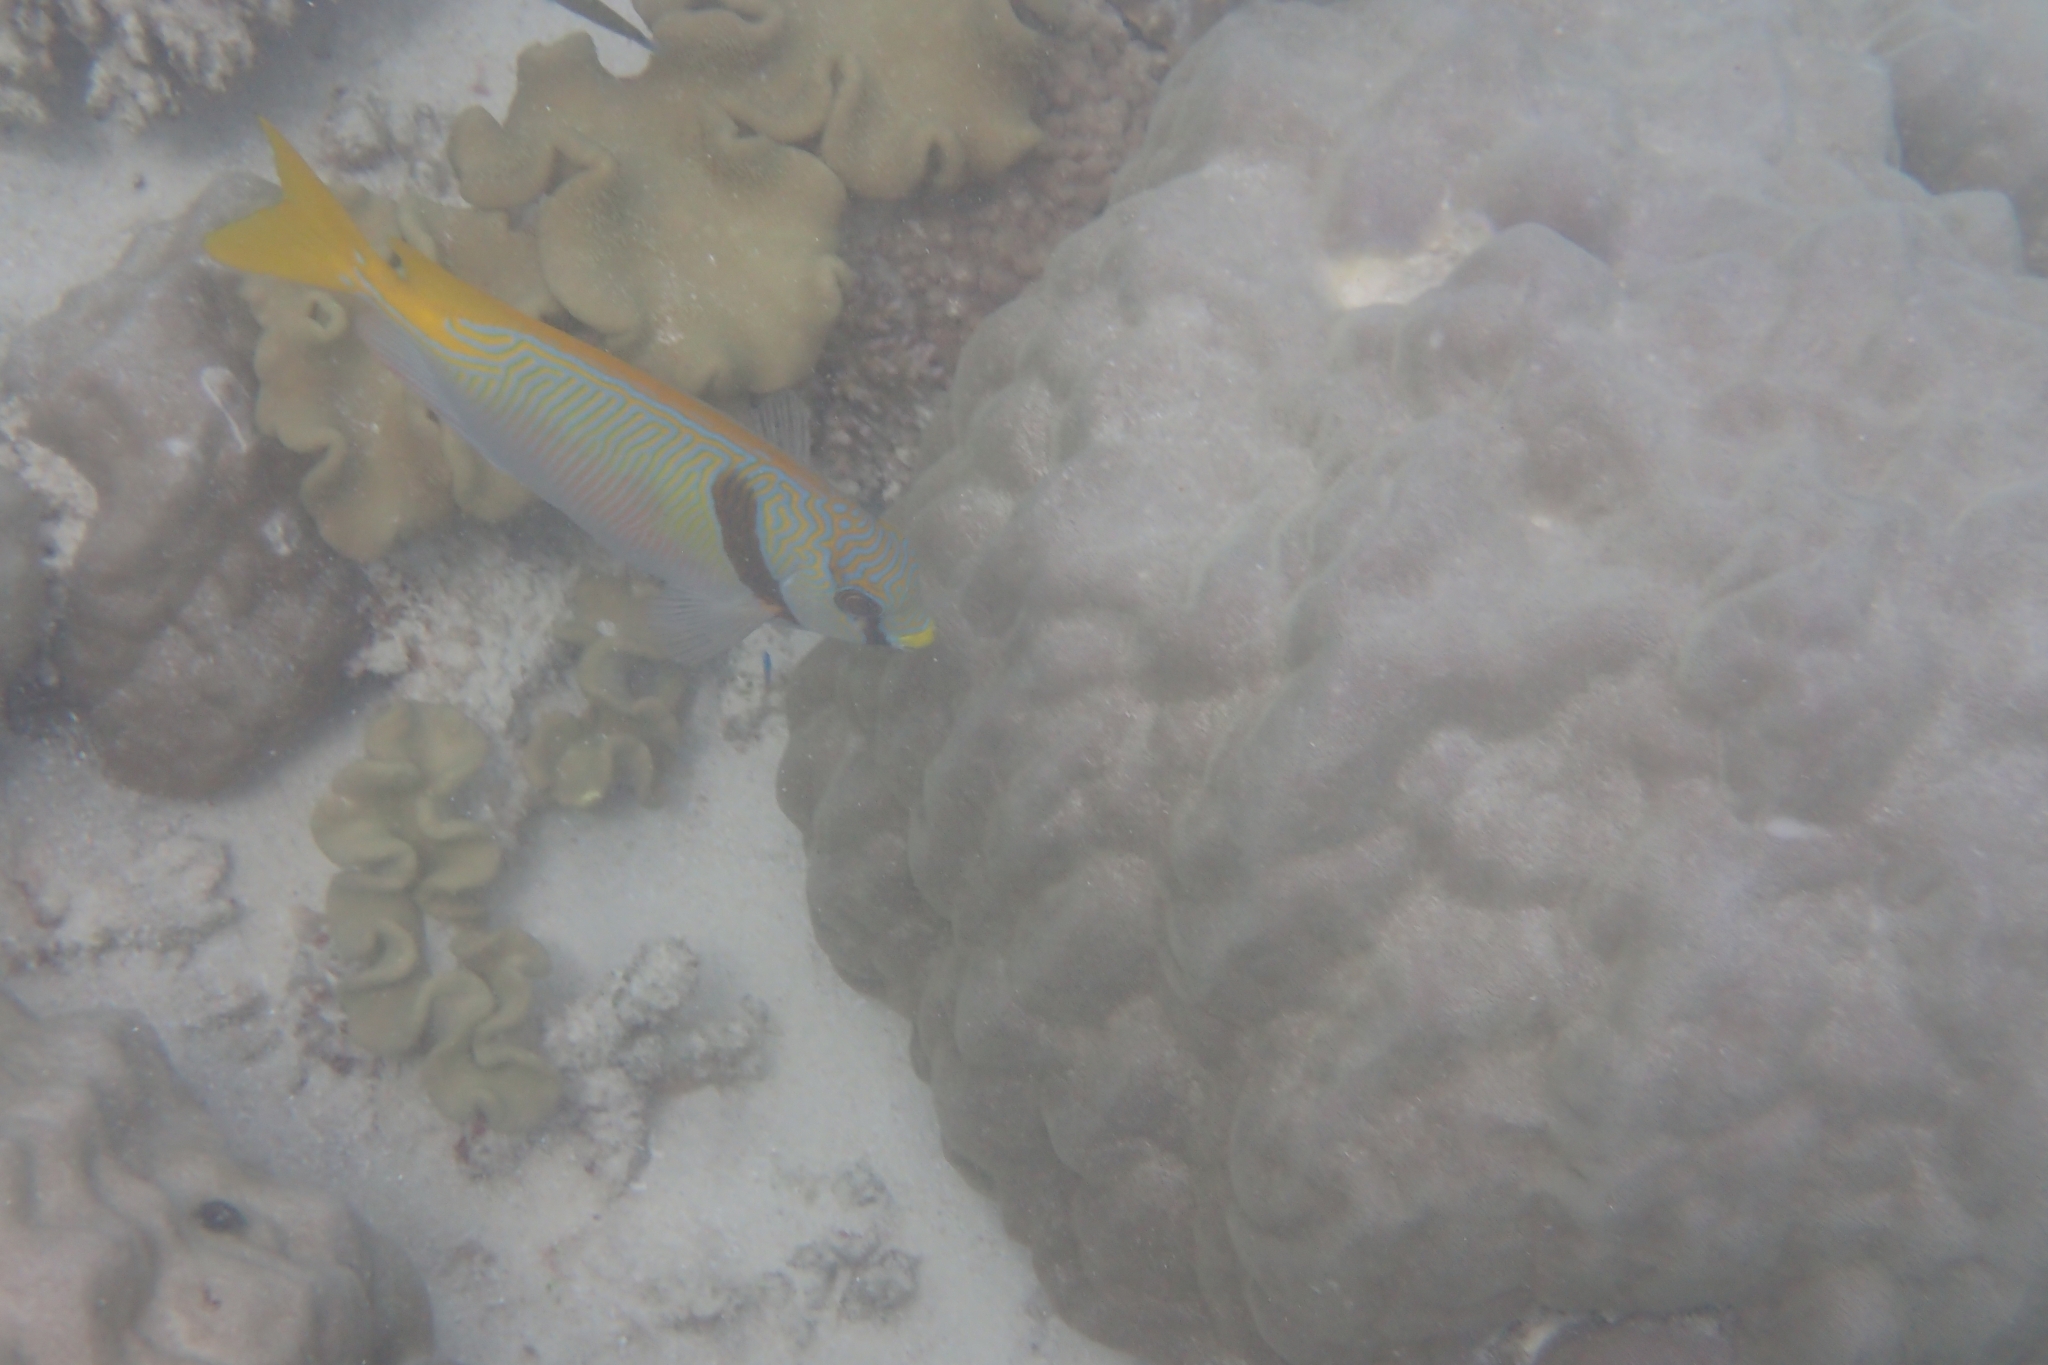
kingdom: Animalia
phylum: Chordata
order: Perciformes
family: Siganidae
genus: Siganus
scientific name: Siganus doliatus
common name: Barred spinefoot
